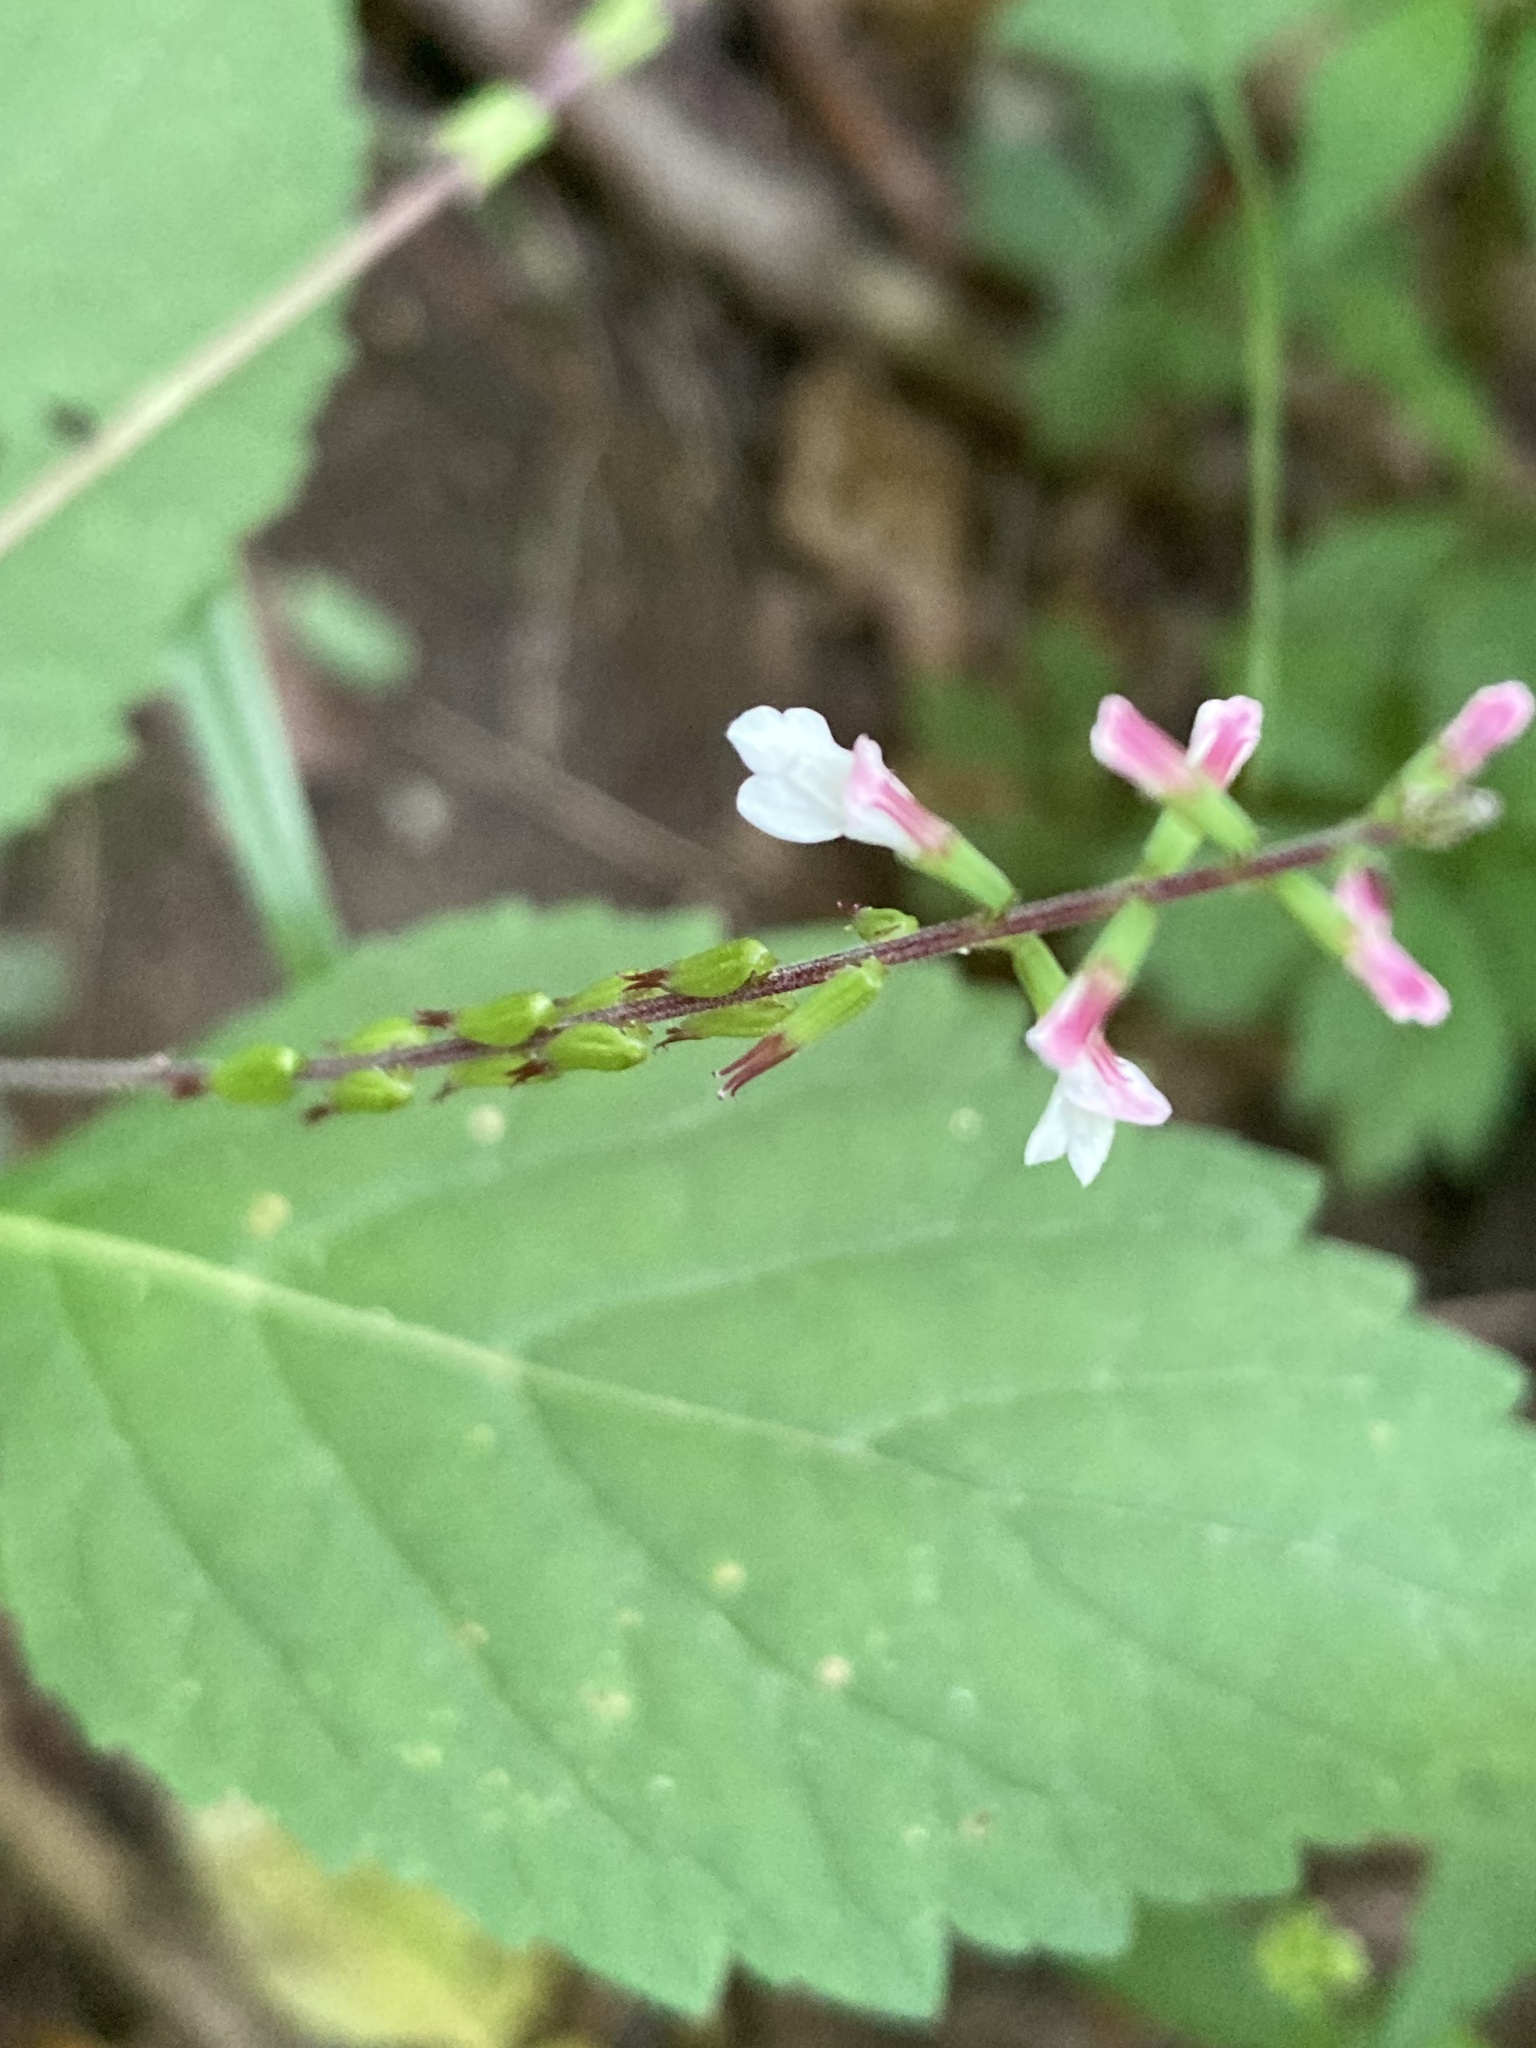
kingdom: Plantae
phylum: Tracheophyta
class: Magnoliopsida
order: Lamiales
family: Phrymaceae
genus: Phryma
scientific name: Phryma leptostachya
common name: American lopseed
